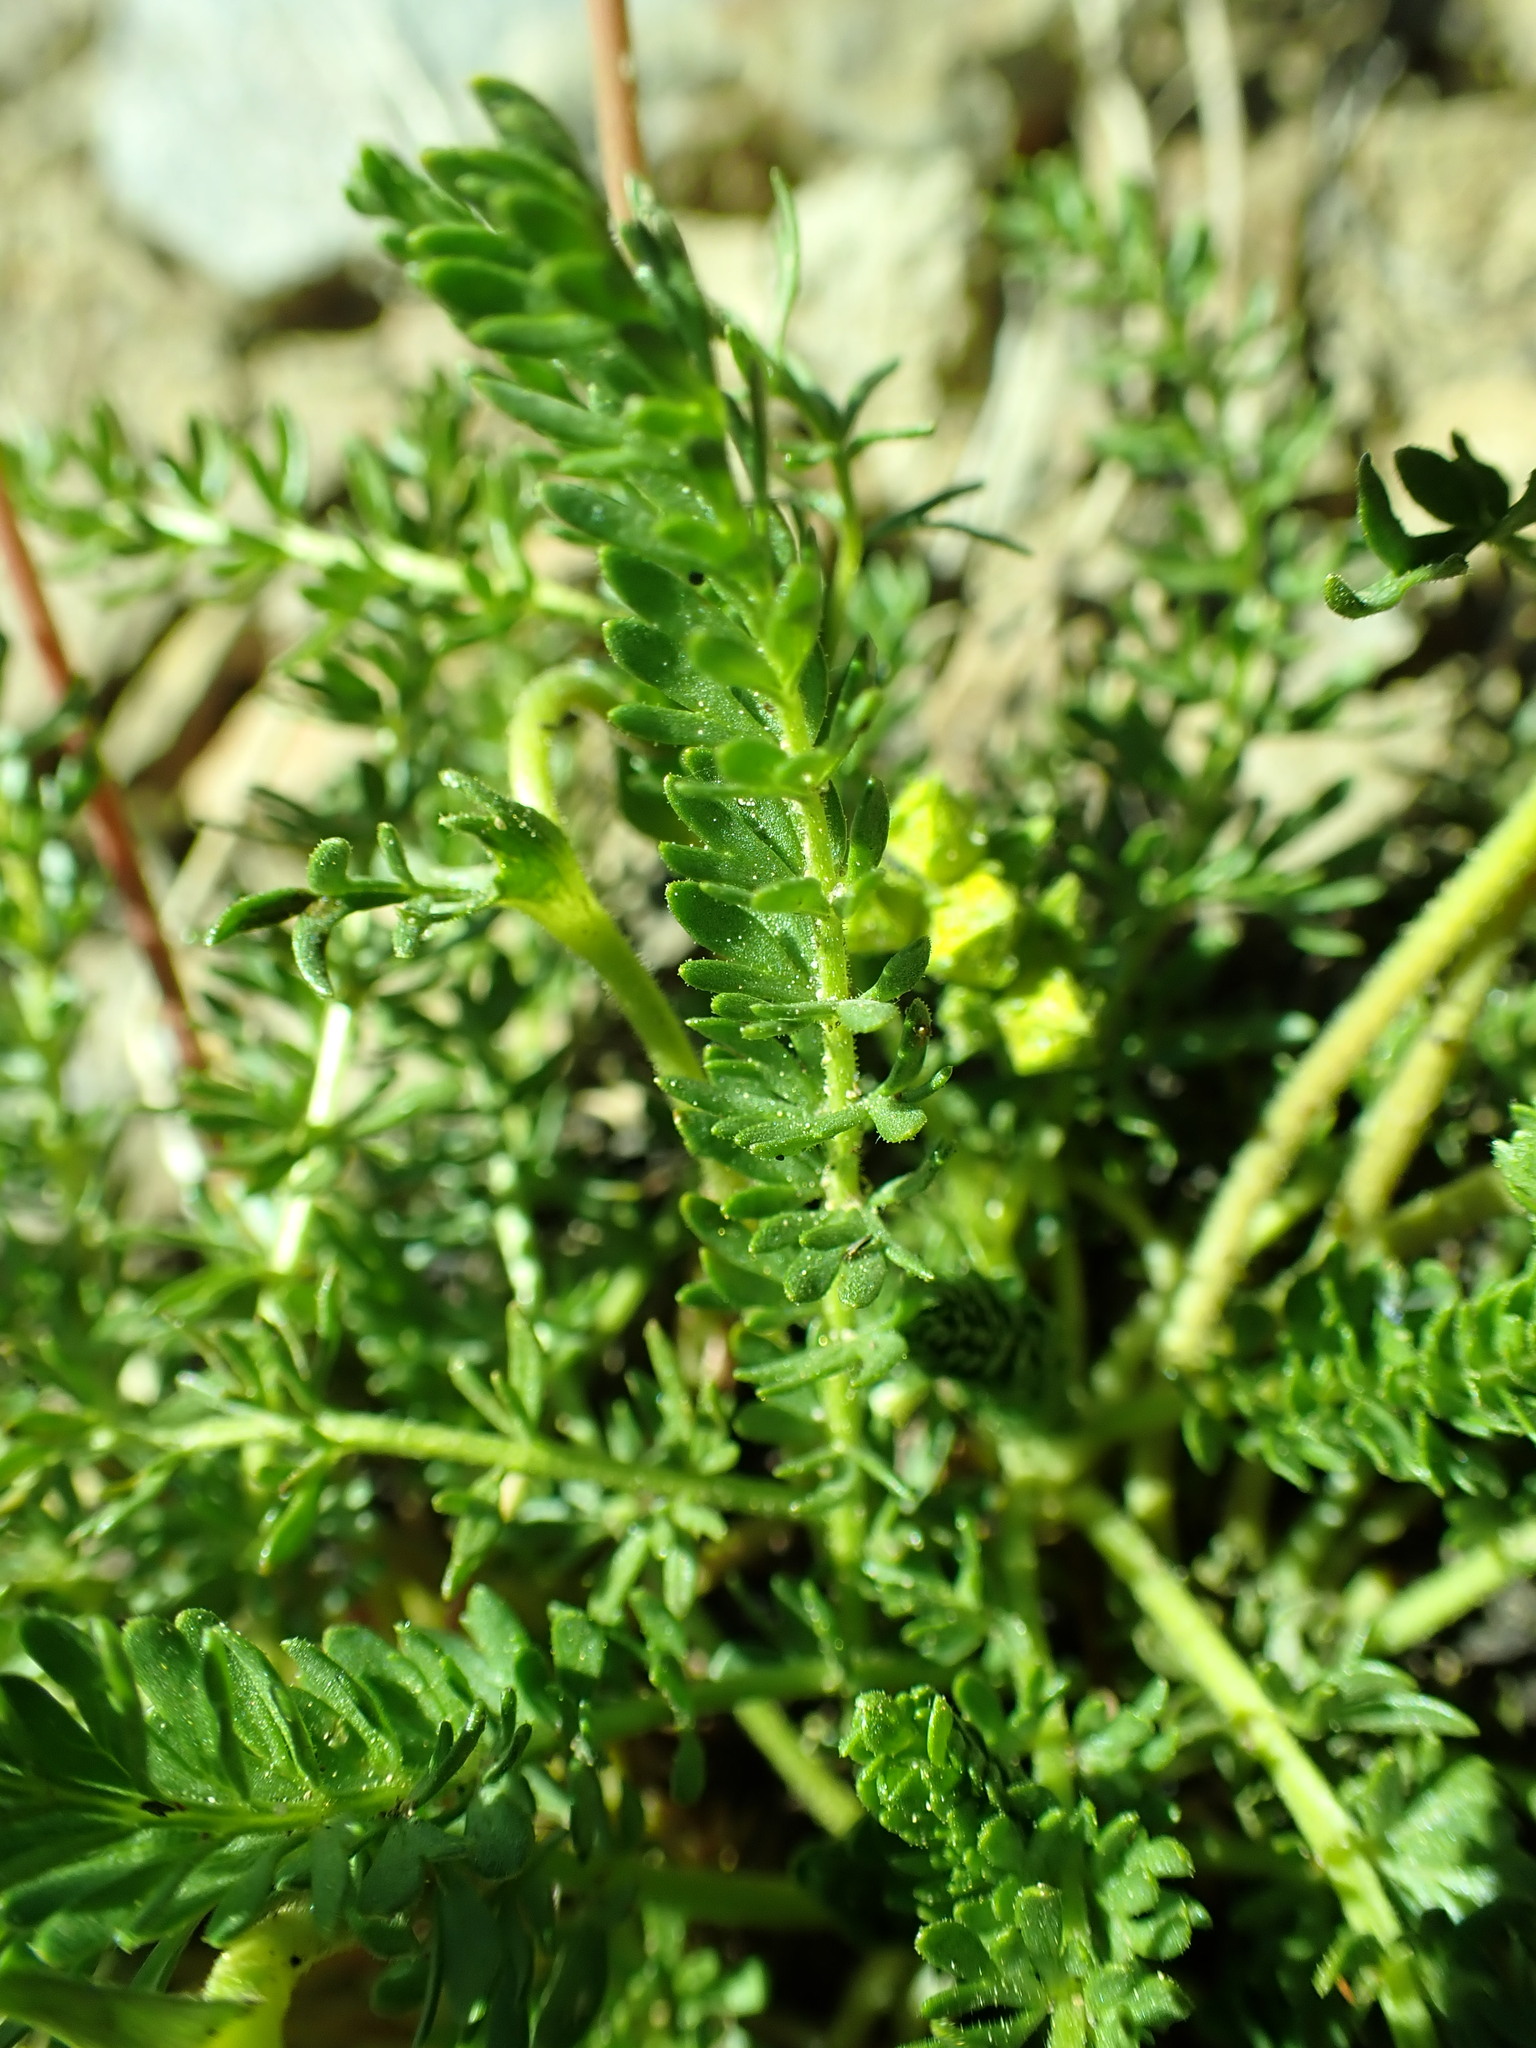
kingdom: Plantae
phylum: Tracheophyta
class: Magnoliopsida
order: Rosales
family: Rosaceae
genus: Potentilla
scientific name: Potentilla tweedyi
